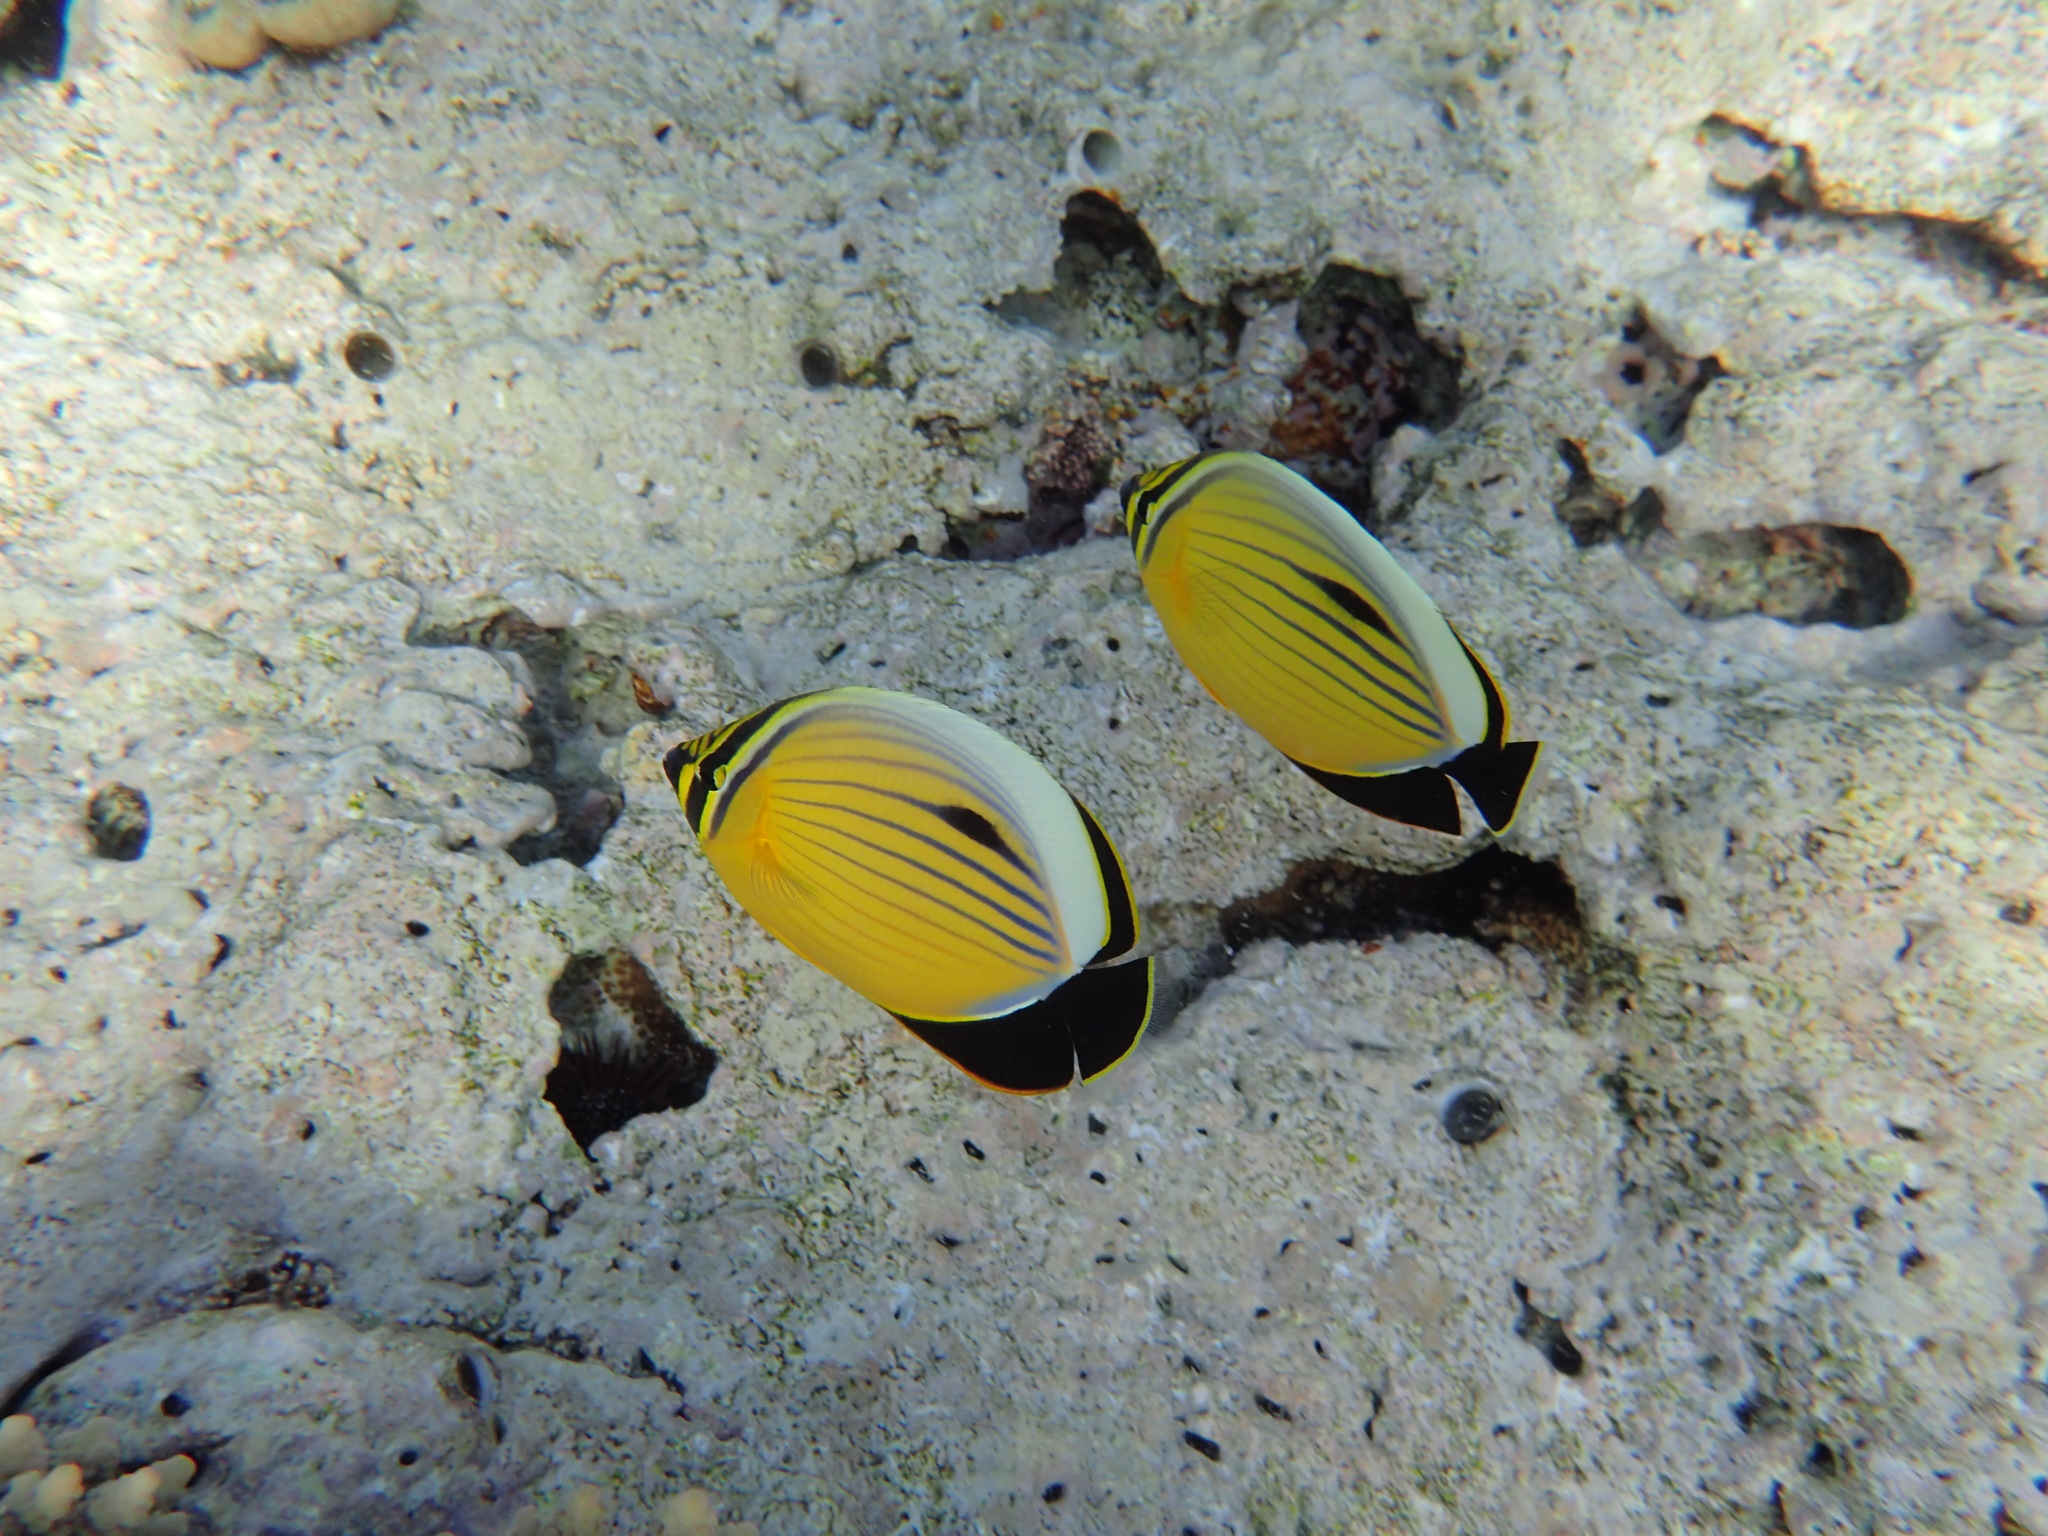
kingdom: Animalia
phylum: Chordata
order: Perciformes
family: Chaetodontidae
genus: Chaetodon
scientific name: Chaetodon austriacus
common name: Exquisite butterflyfish
